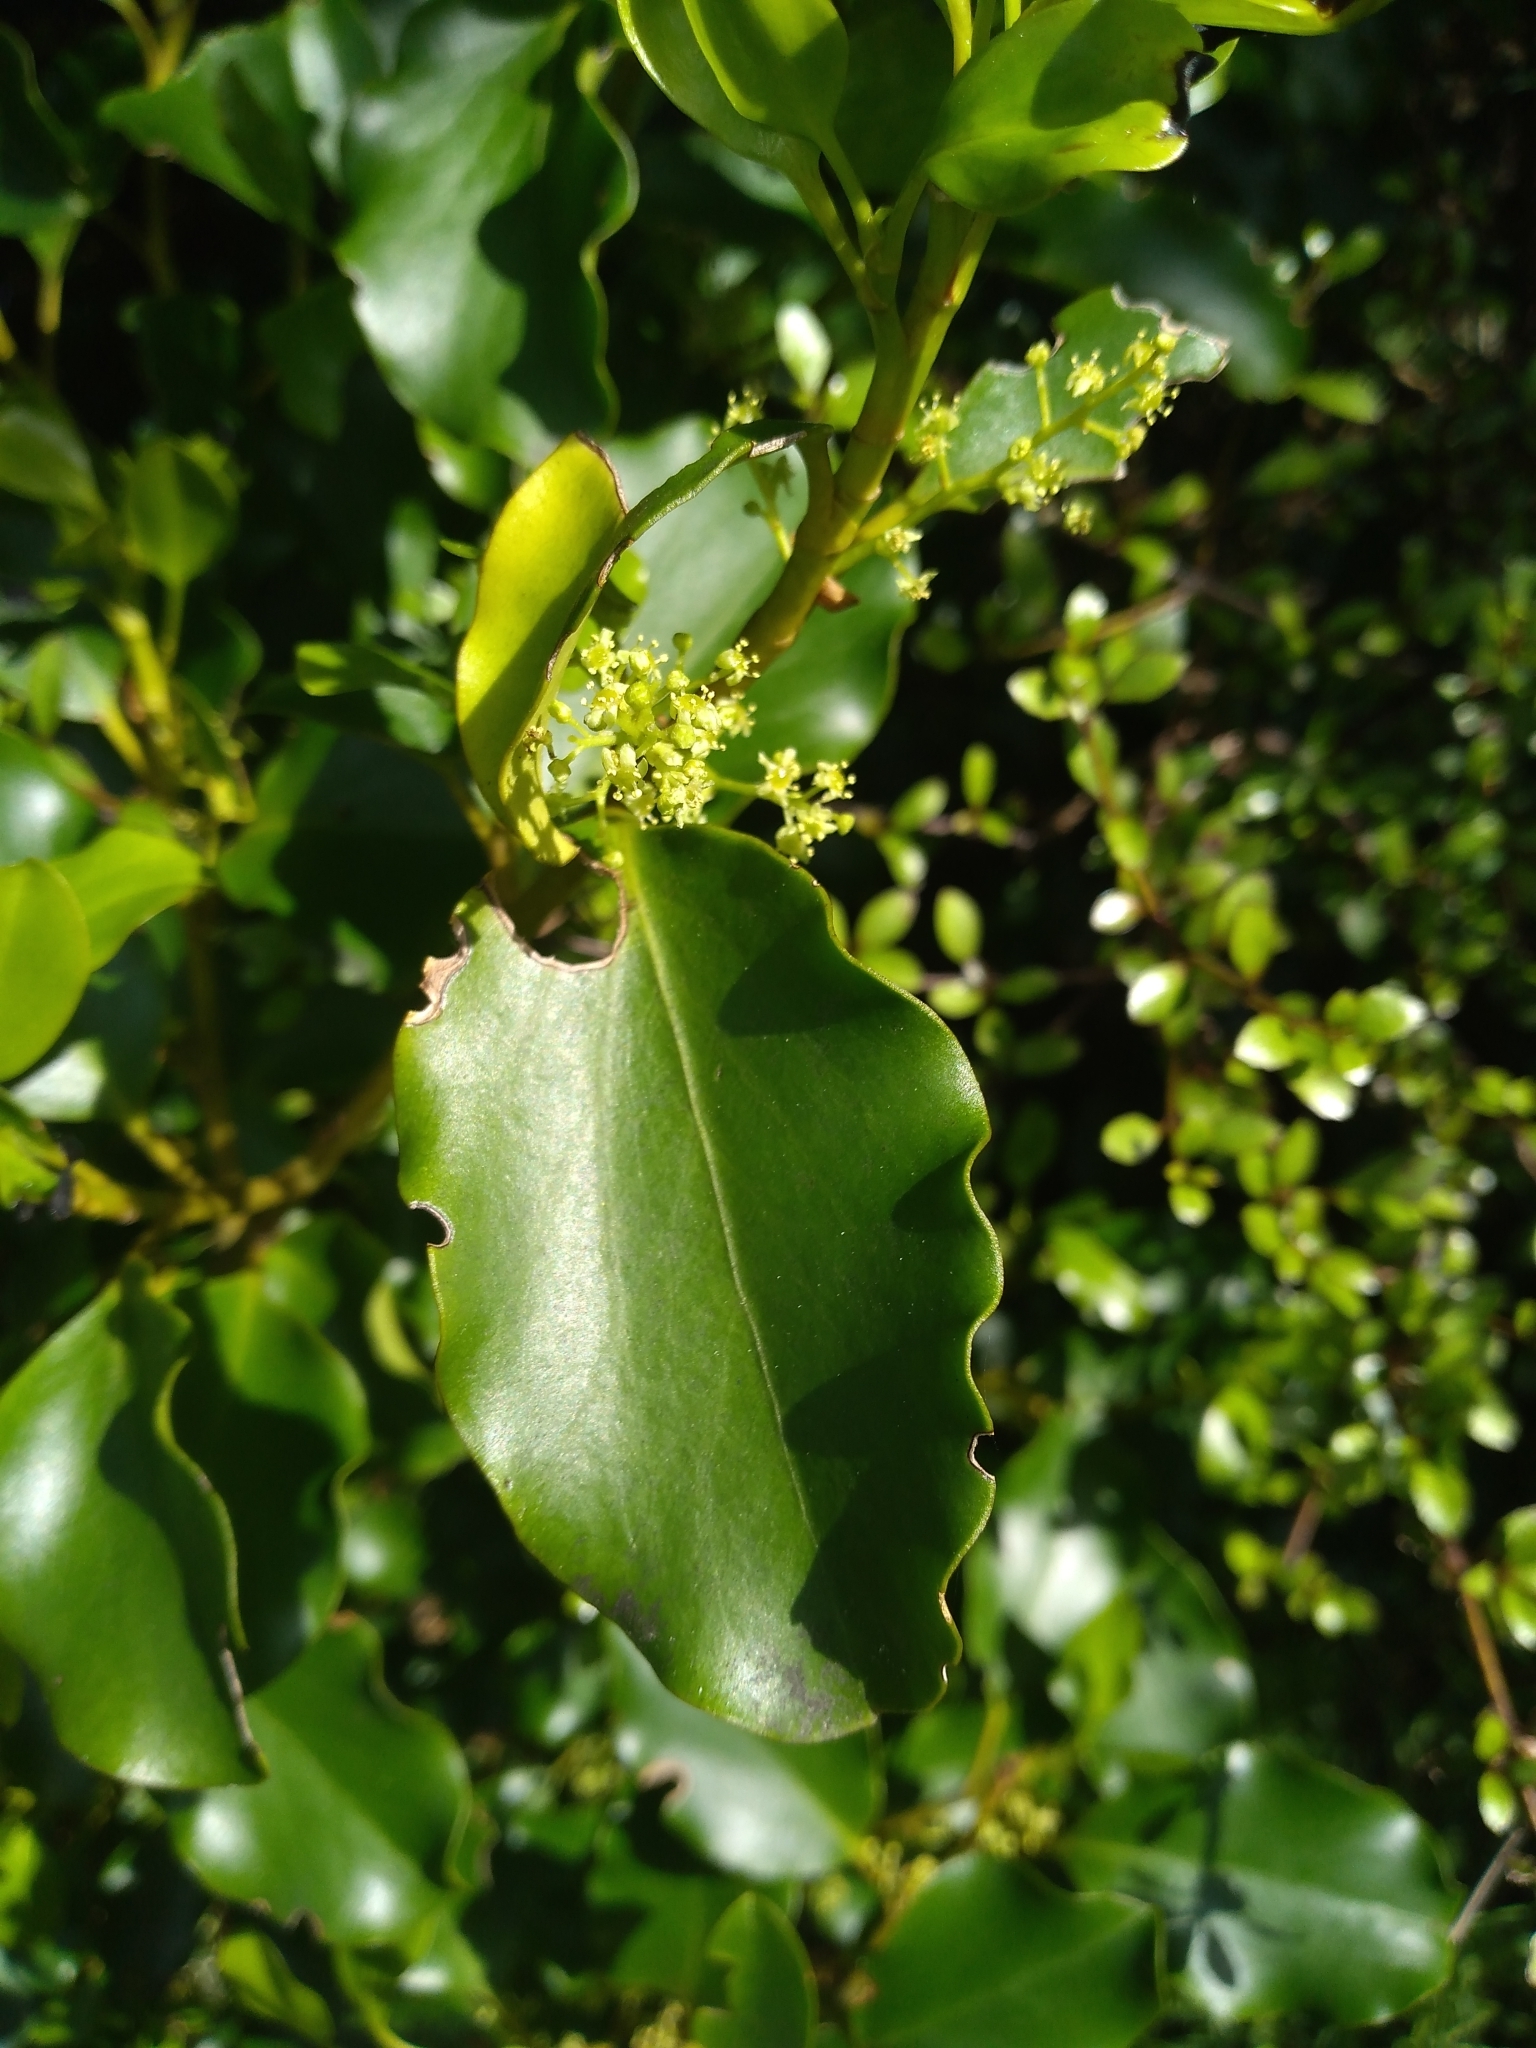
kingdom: Plantae
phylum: Tracheophyta
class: Magnoliopsida
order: Apiales
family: Griseliniaceae
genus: Griselinia
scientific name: Griselinia littoralis
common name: New zealand broadleaf
